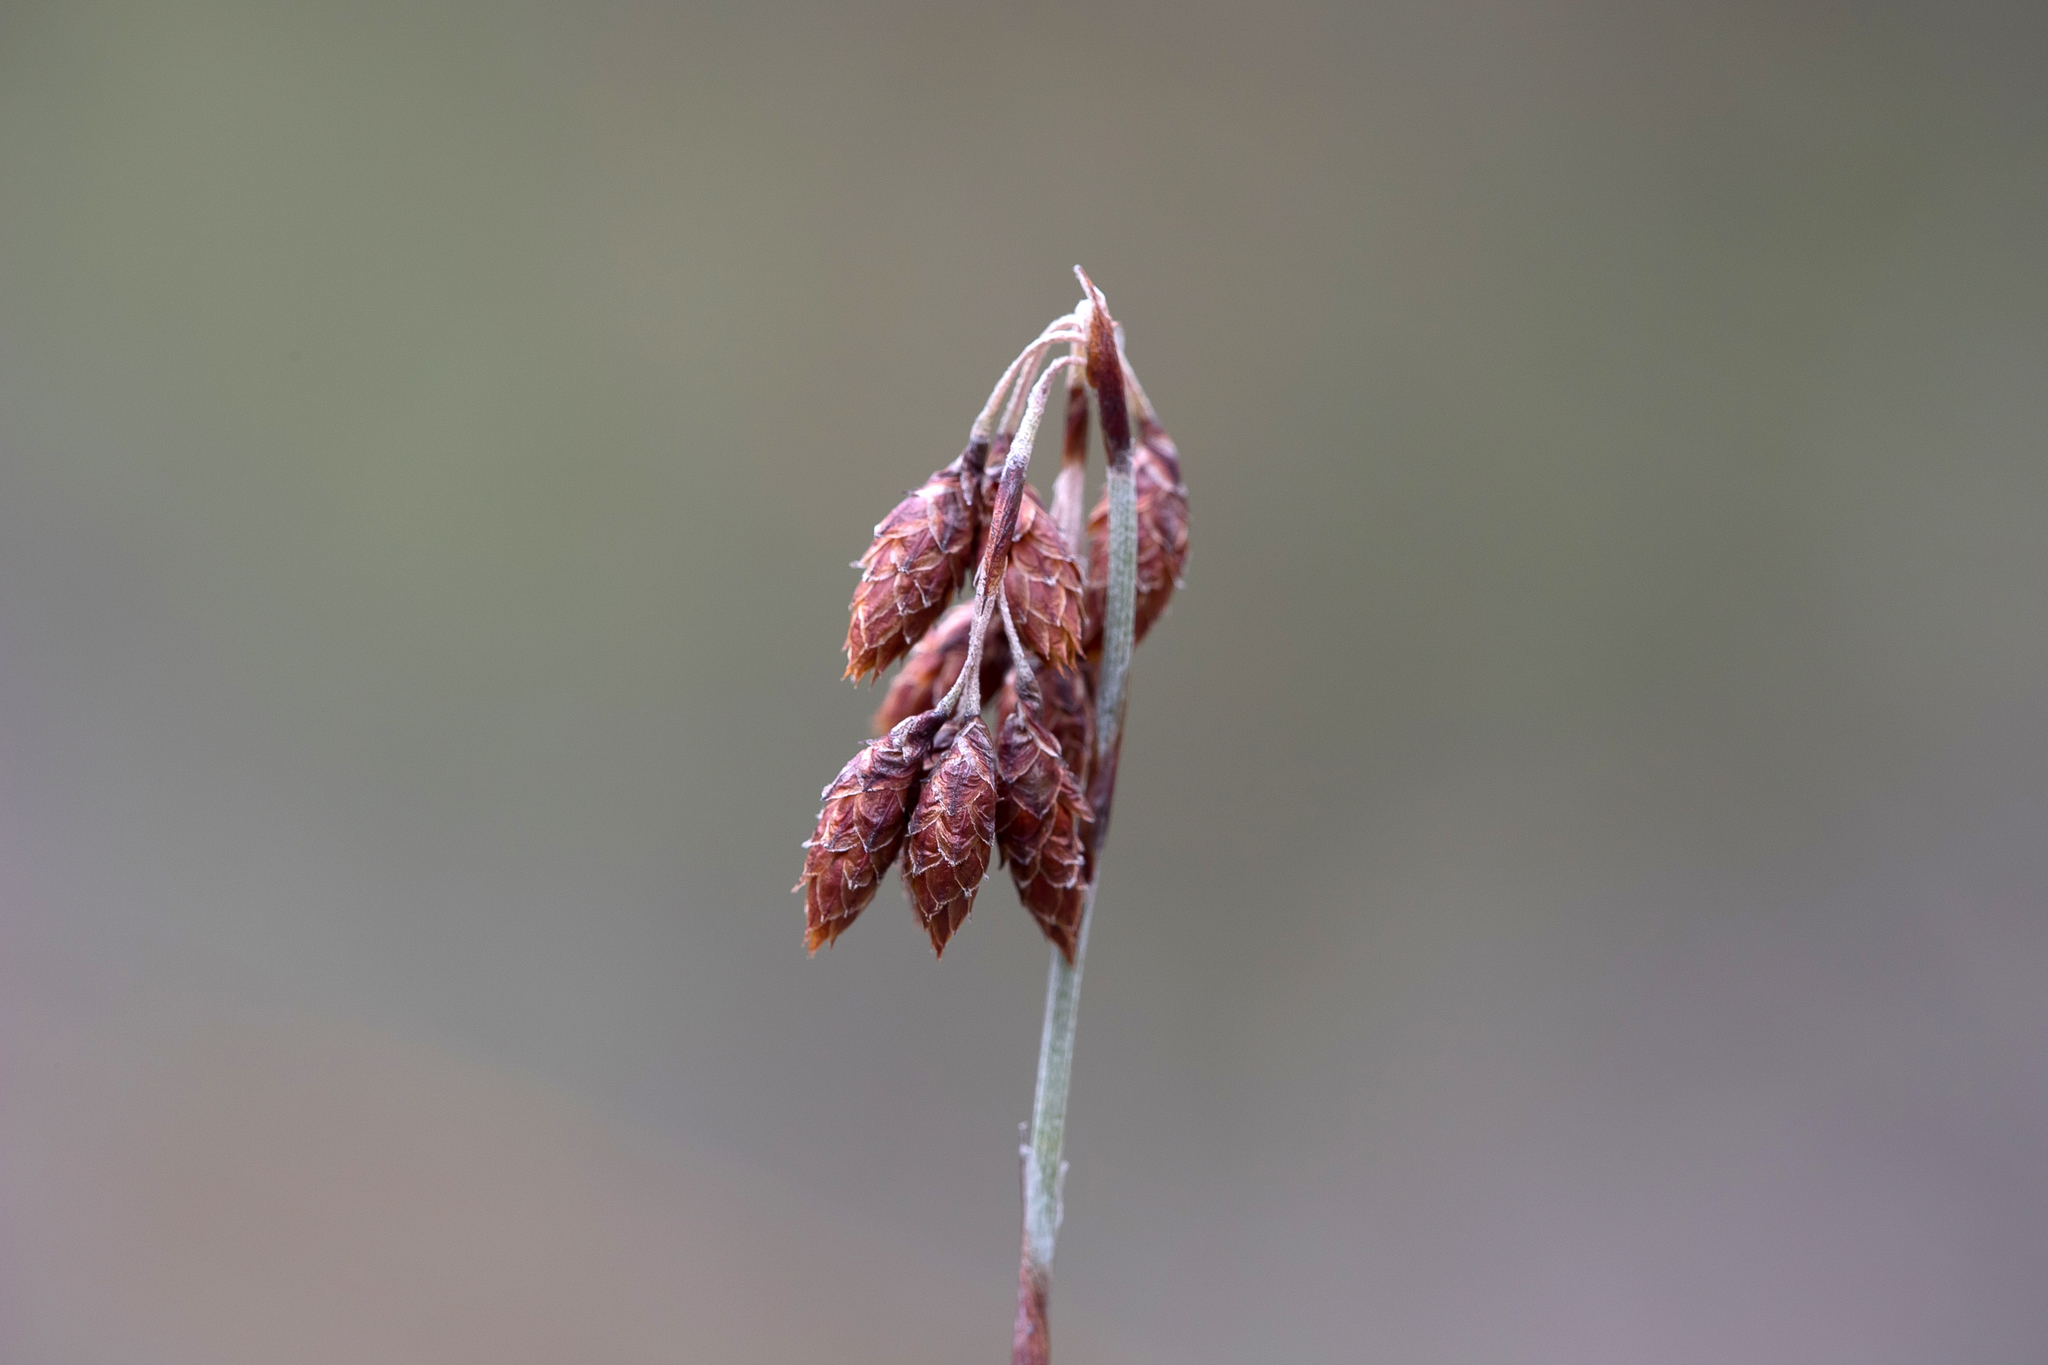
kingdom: Plantae
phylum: Tracheophyta
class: Liliopsida
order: Poales
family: Restionaceae
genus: Hypolaena
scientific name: Hypolaena fastigiata
